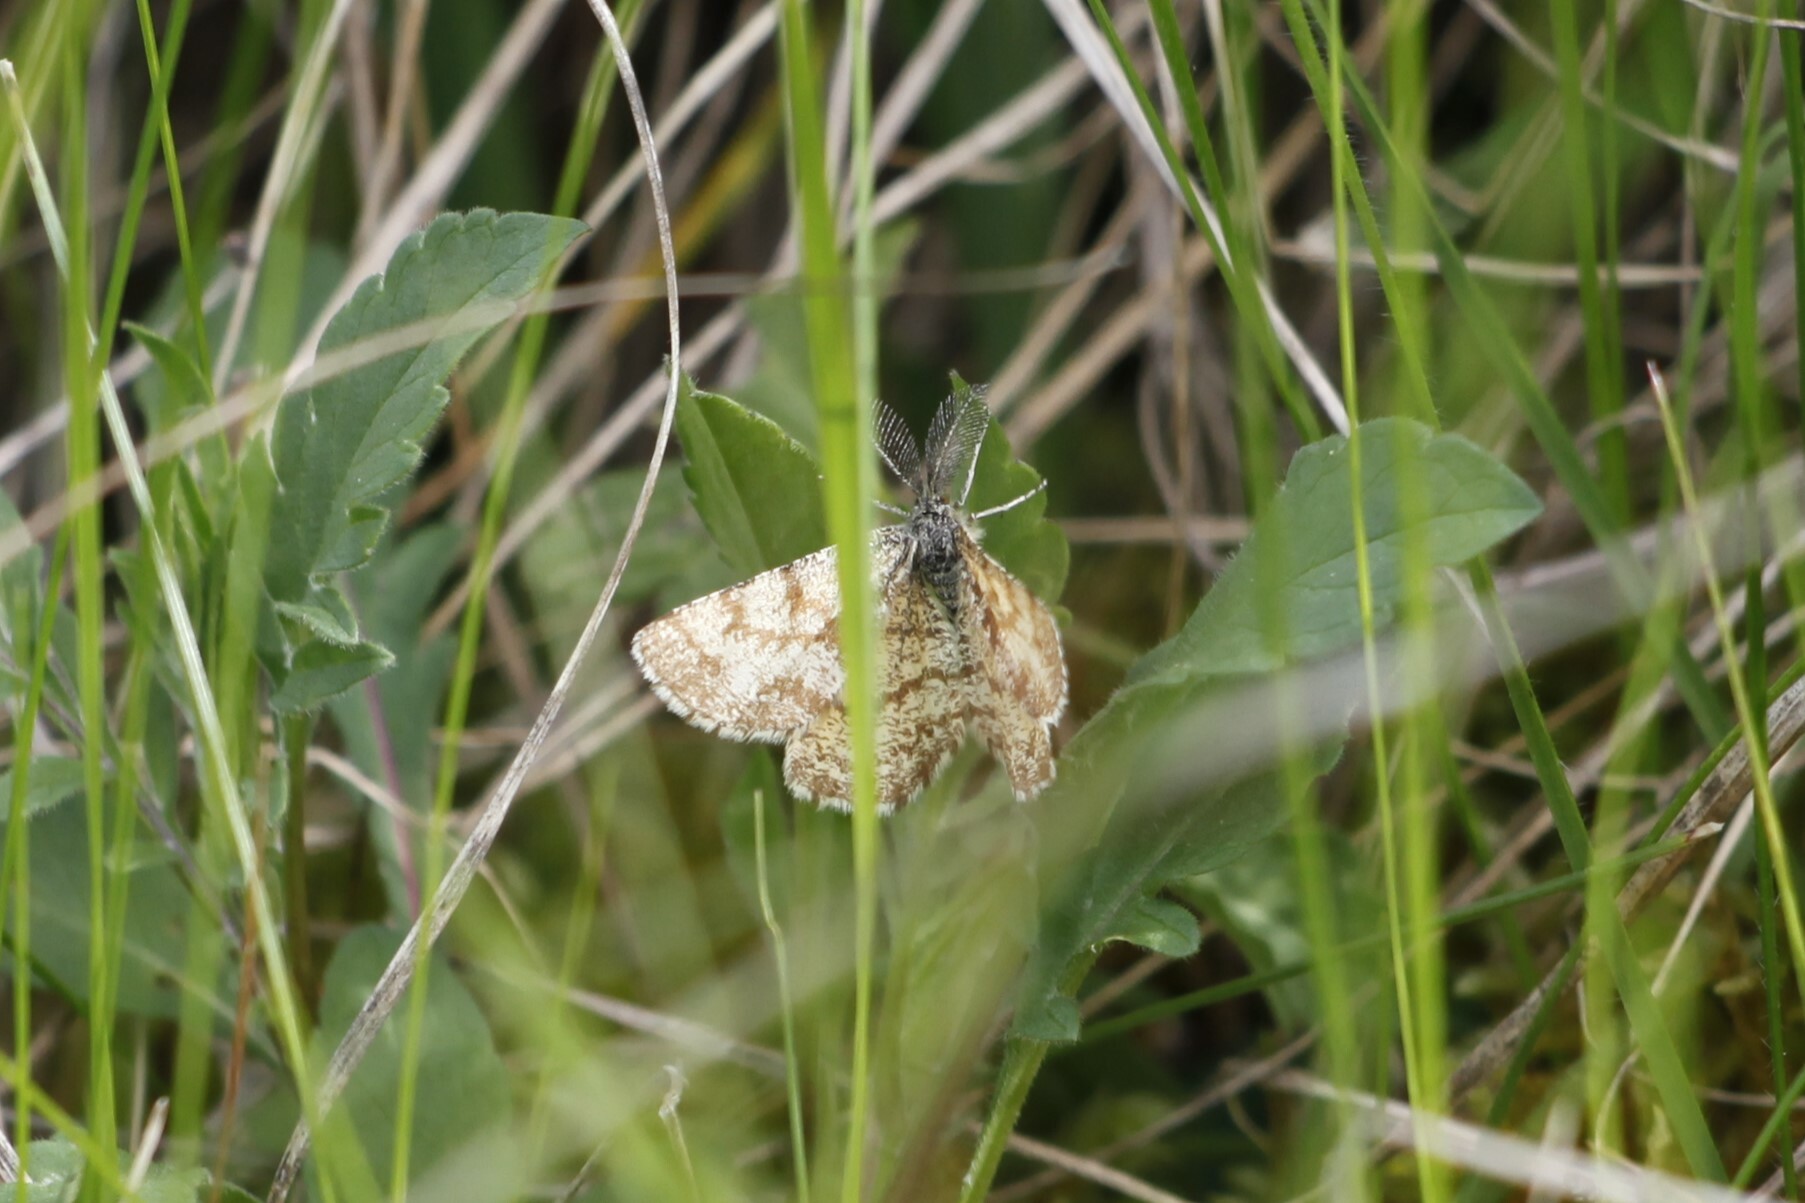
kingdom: Animalia
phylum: Arthropoda
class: Insecta
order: Lepidoptera
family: Geometridae
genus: Ematurga
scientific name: Ematurga atomaria
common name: Common heath
